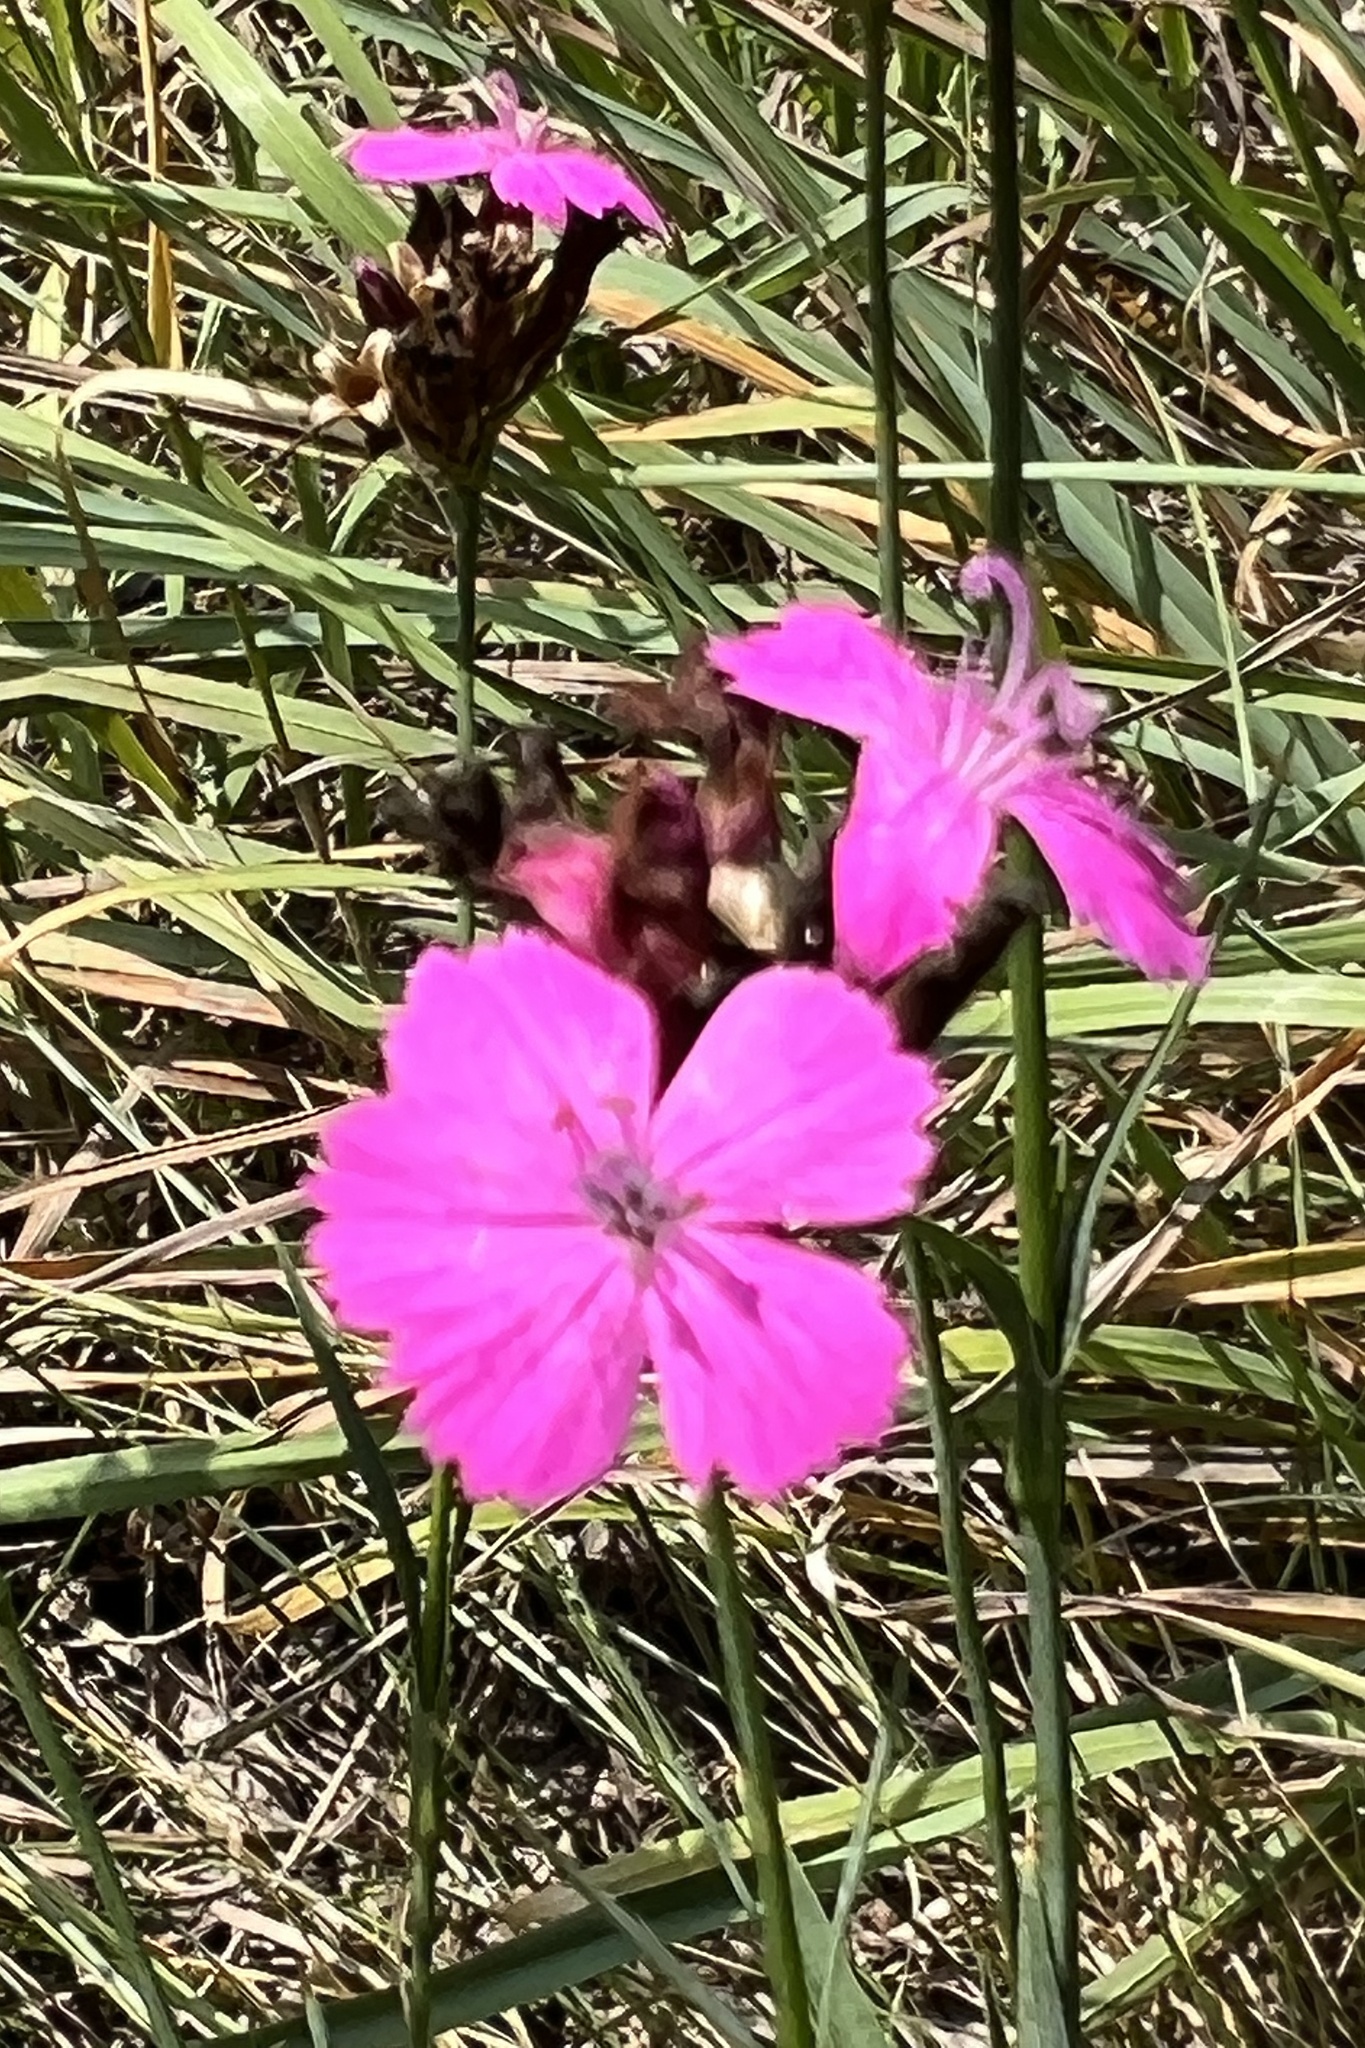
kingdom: Plantae
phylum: Tracheophyta
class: Magnoliopsida
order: Caryophyllales
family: Caryophyllaceae
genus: Dianthus
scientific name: Dianthus carthusianorum
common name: Carthusian pink
